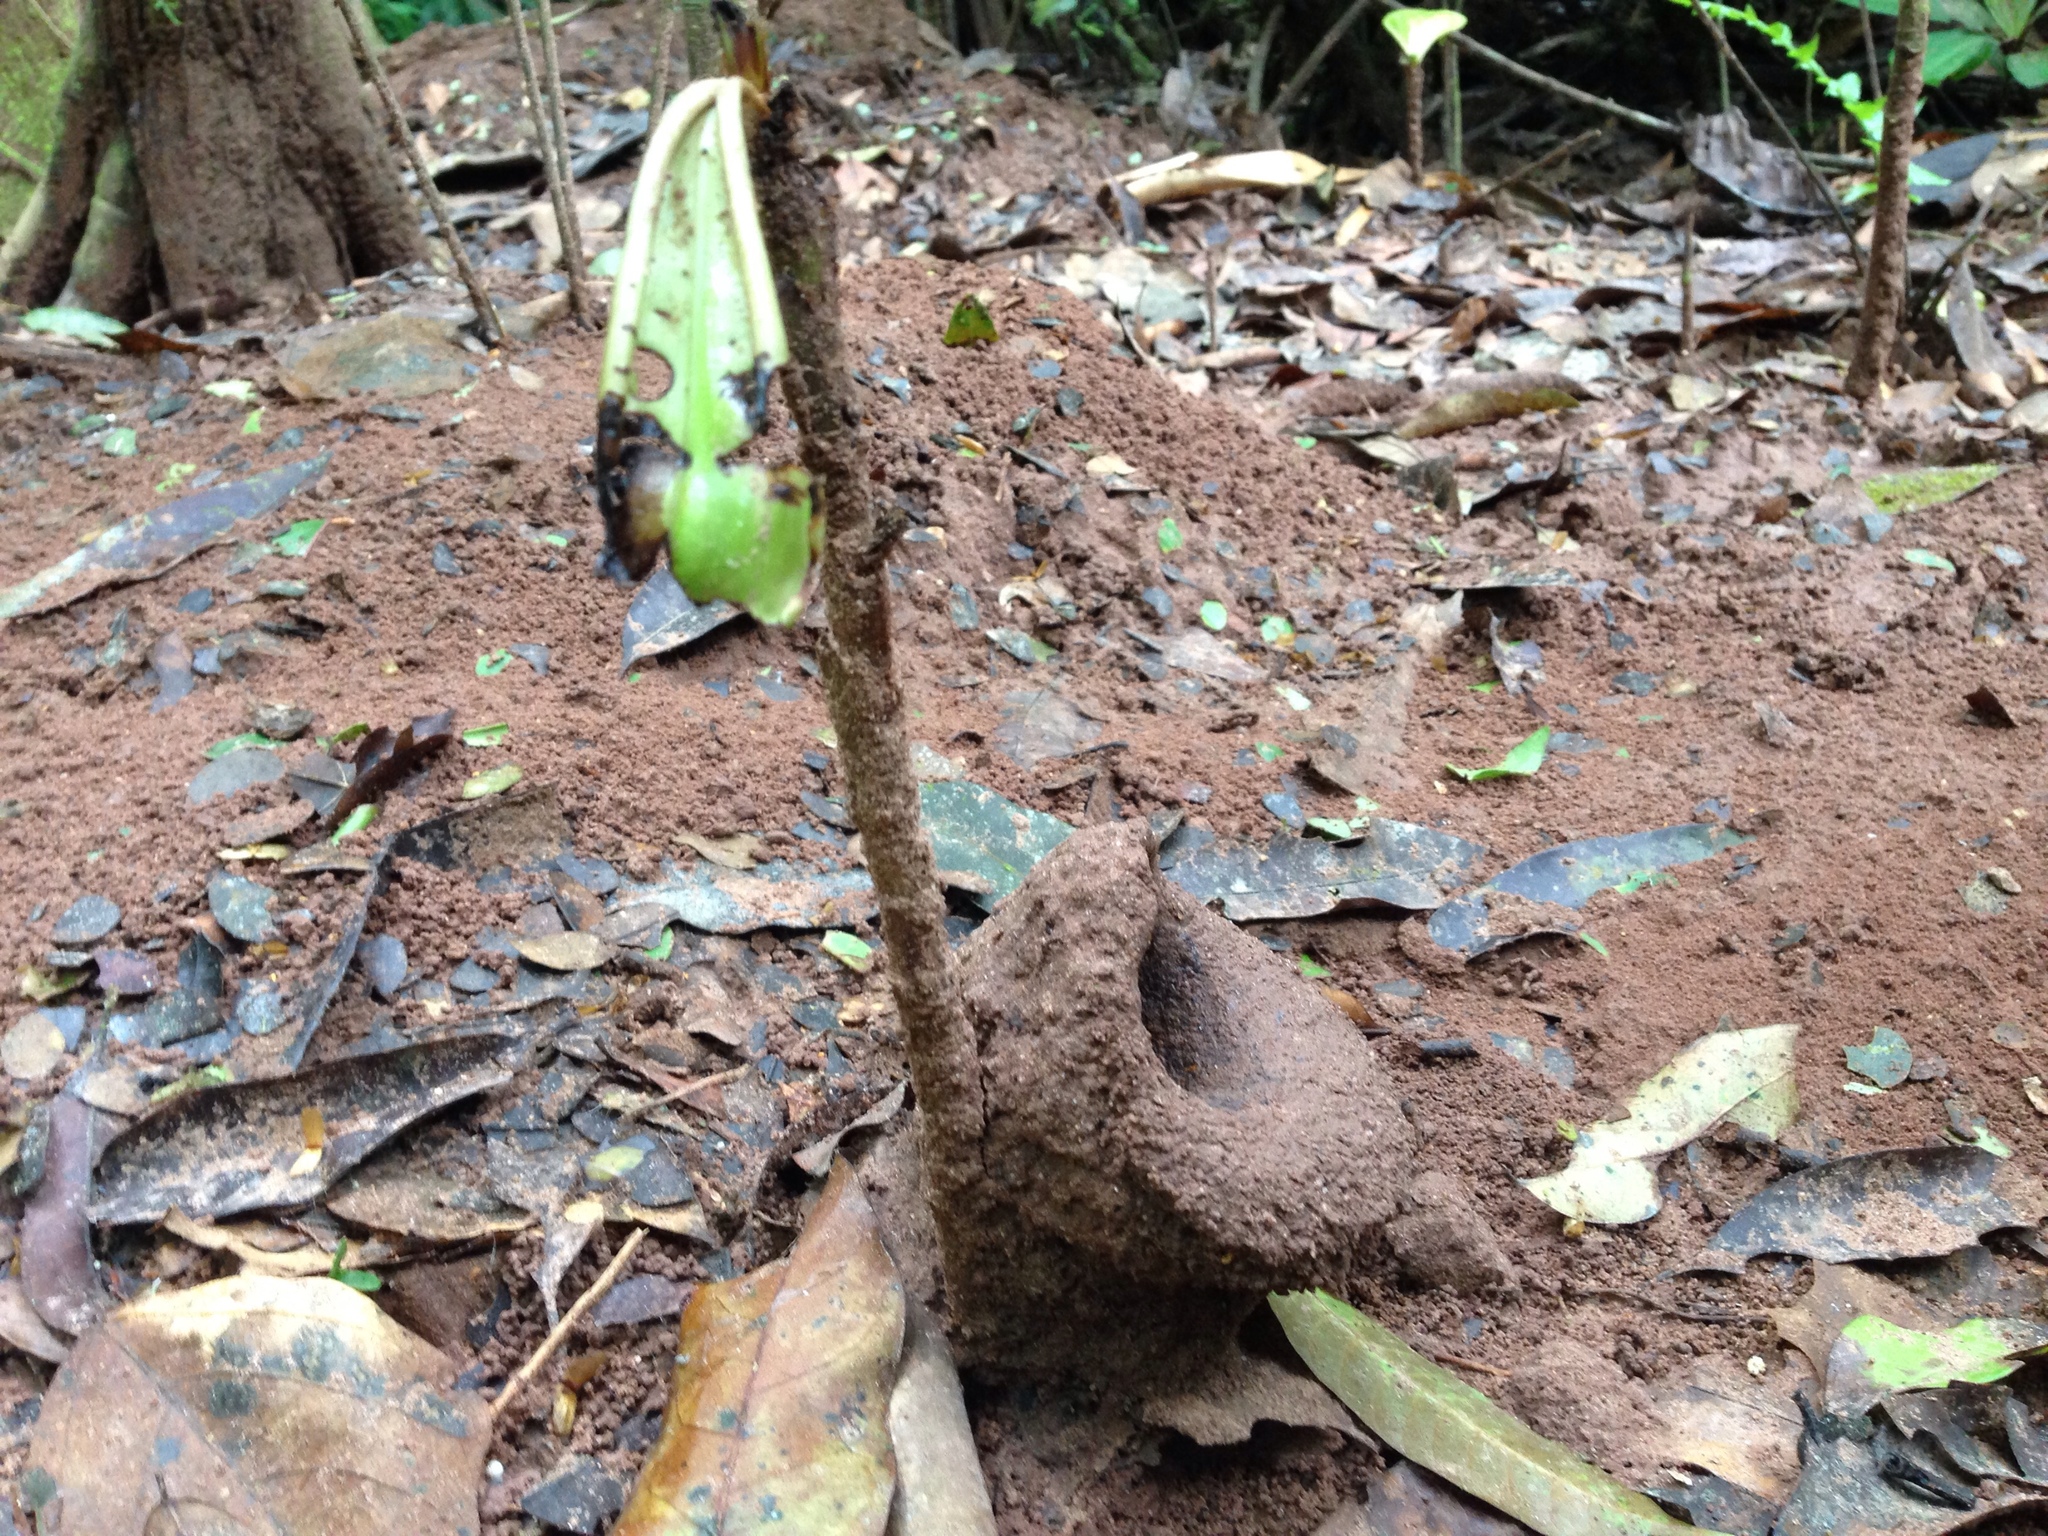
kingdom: Animalia
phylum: Arthropoda
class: Insecta
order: Hymenoptera
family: Apidae
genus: Partamona
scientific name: Partamona testacea
